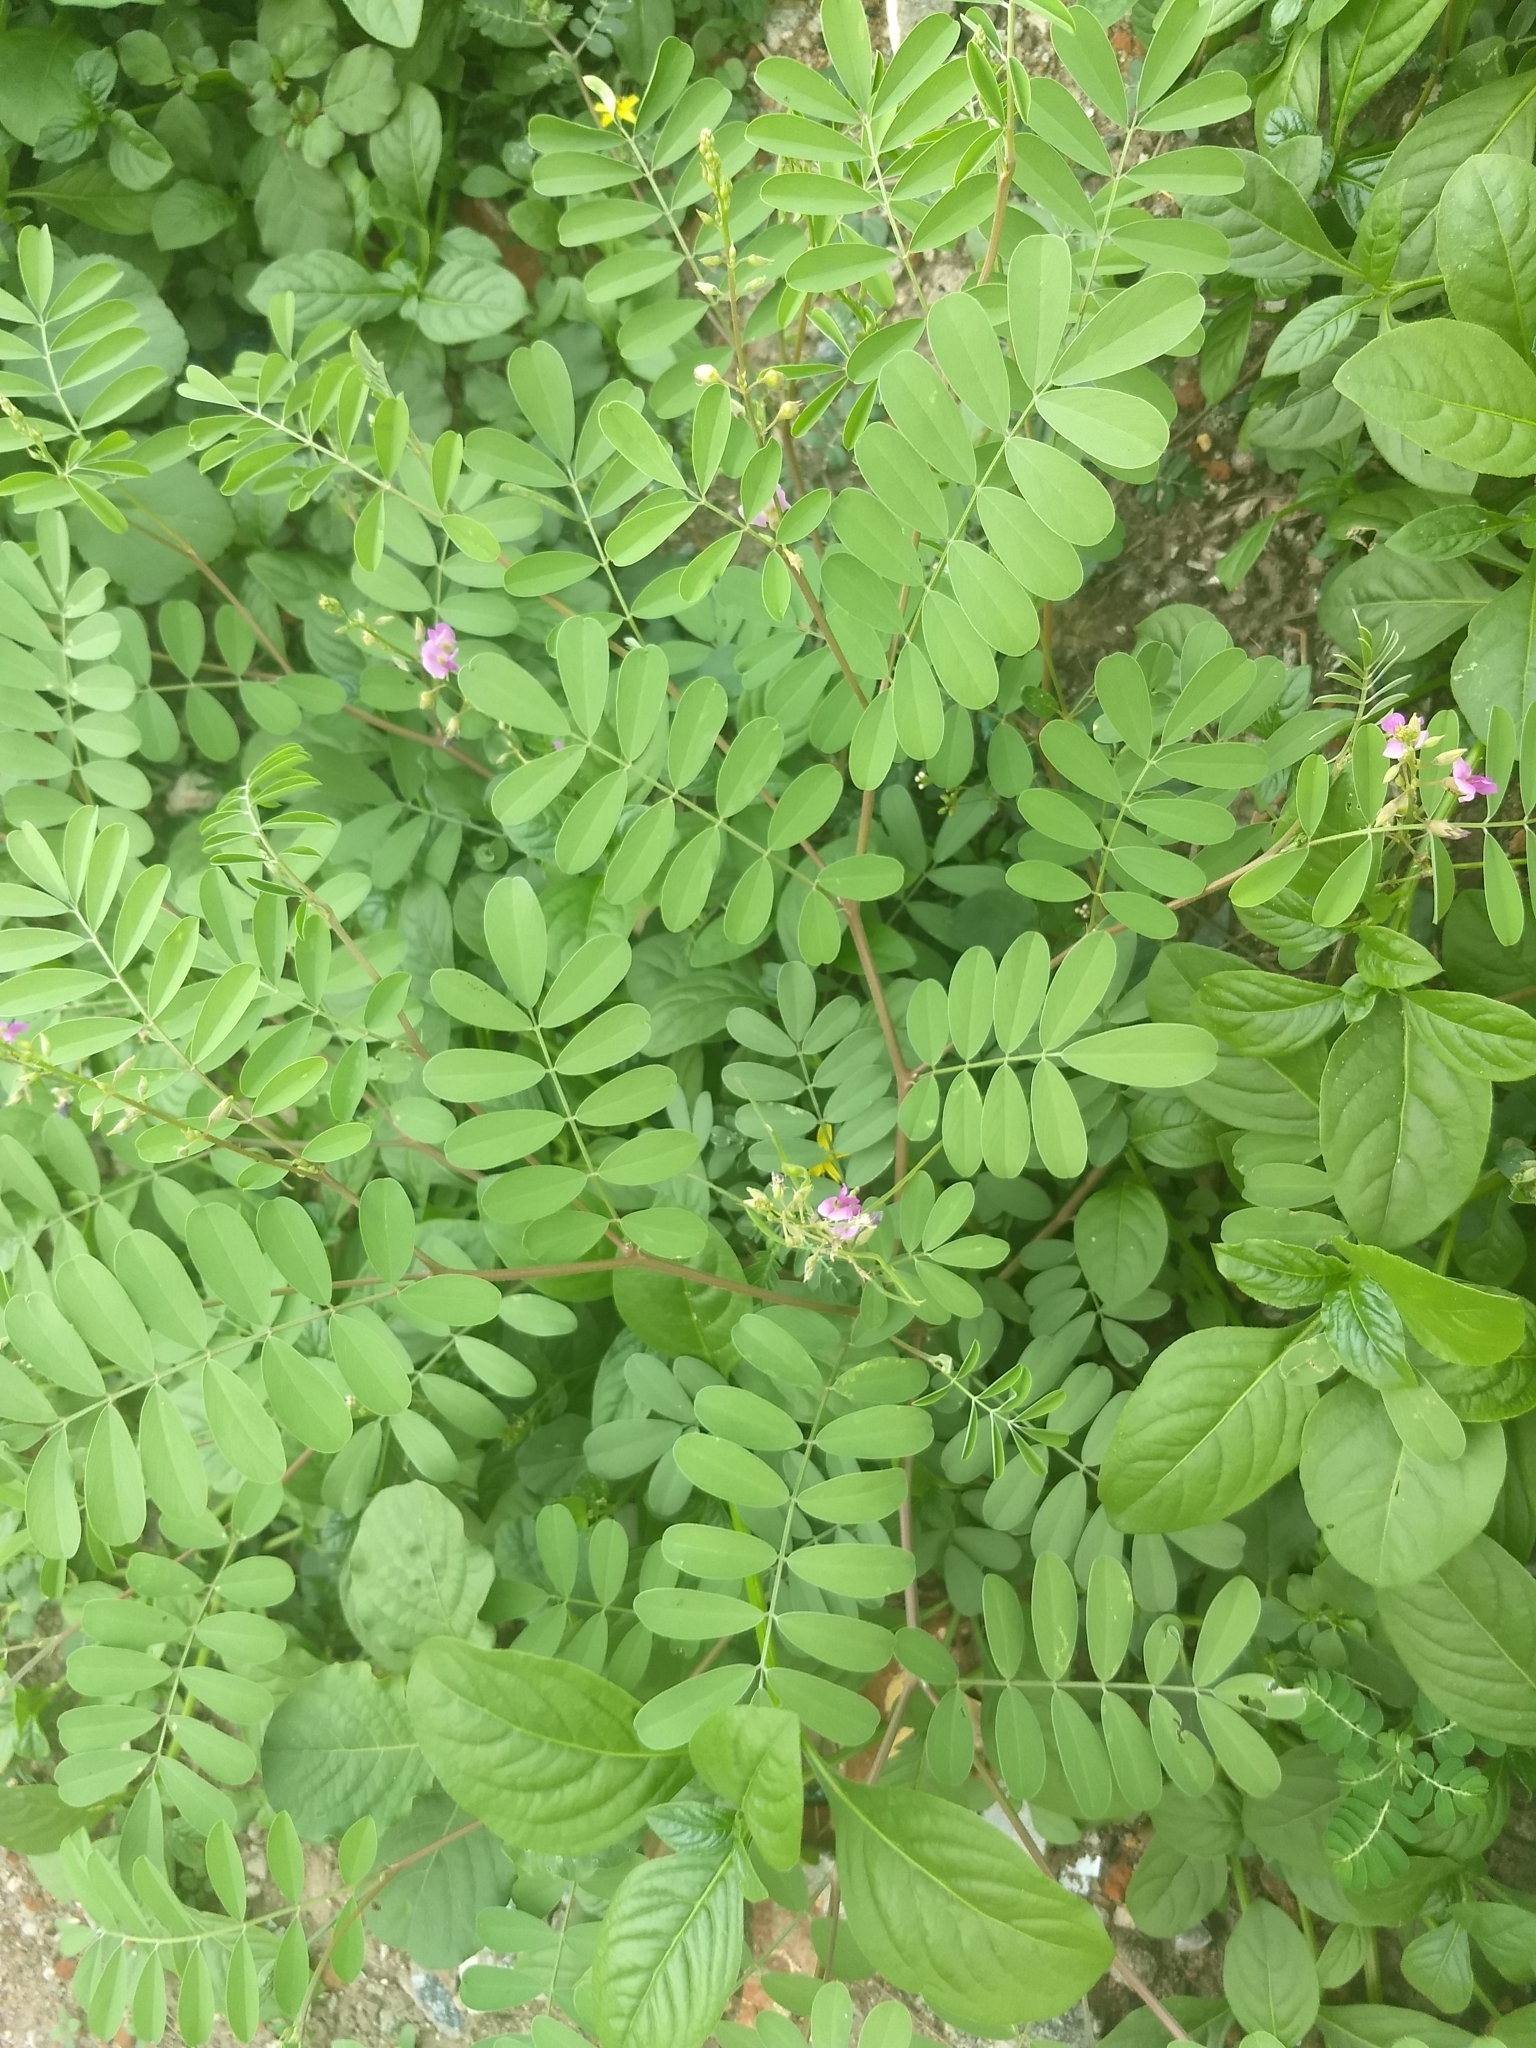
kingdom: Plantae
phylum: Tracheophyta
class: Magnoliopsida
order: Fabales
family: Fabaceae
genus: Tephrosia
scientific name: Tephrosia purpurea
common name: Fishpoison
